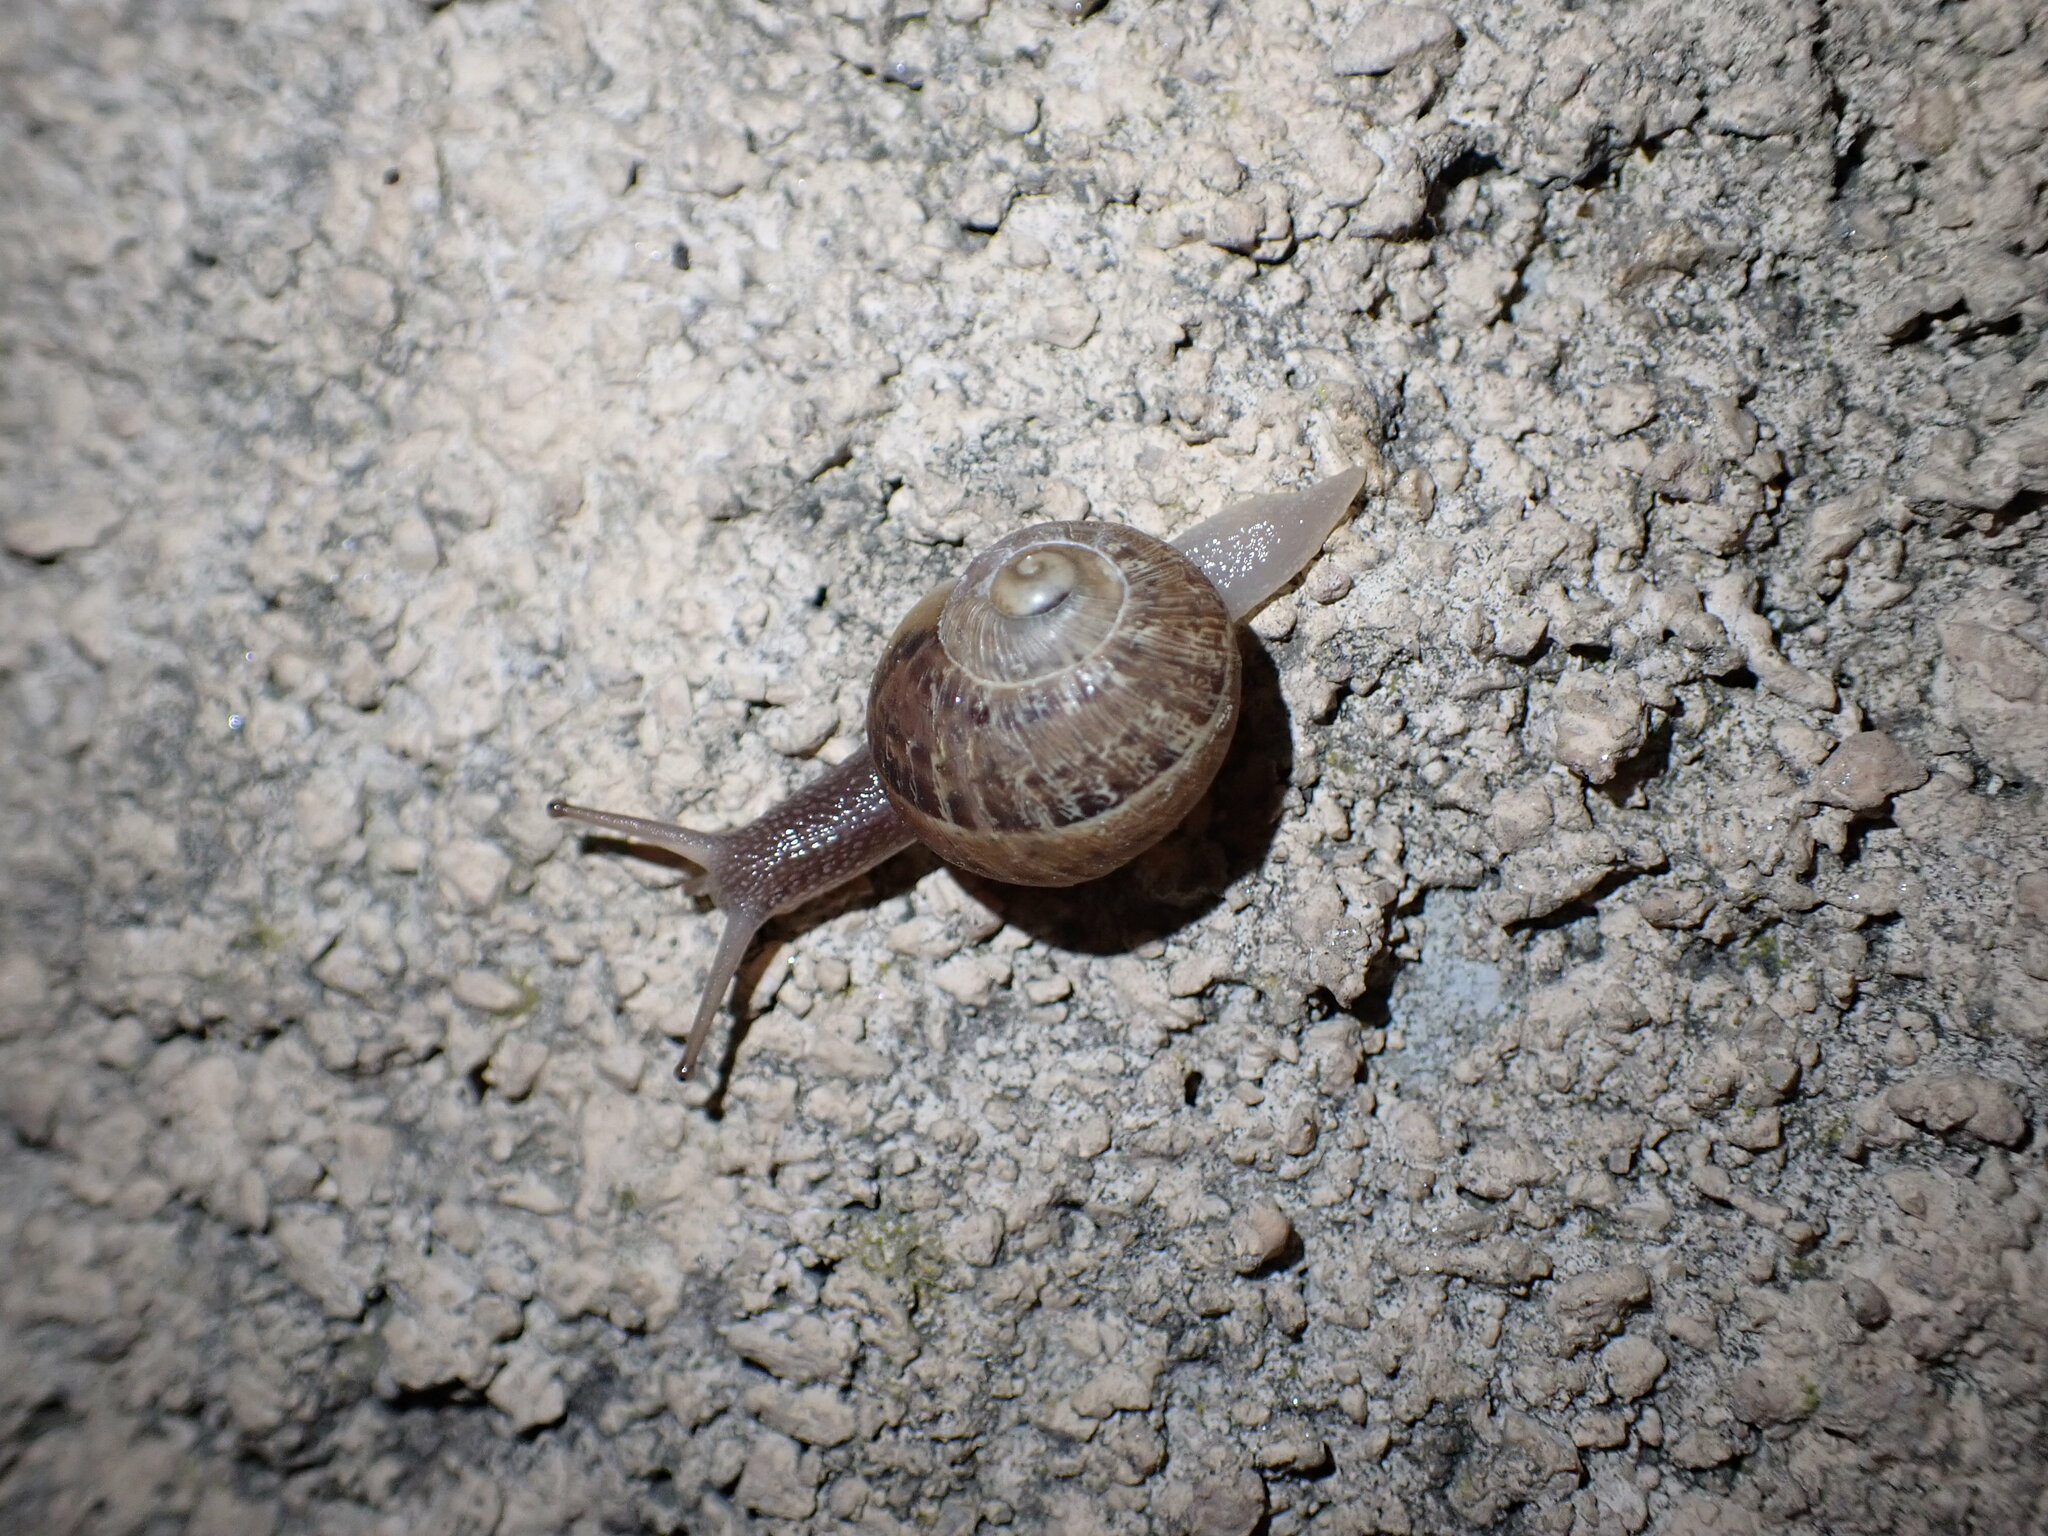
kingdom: Animalia
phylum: Mollusca
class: Gastropoda
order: Stylommatophora
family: Helicidae
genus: Cornu
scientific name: Cornu aspersum
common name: Brown garden snail
